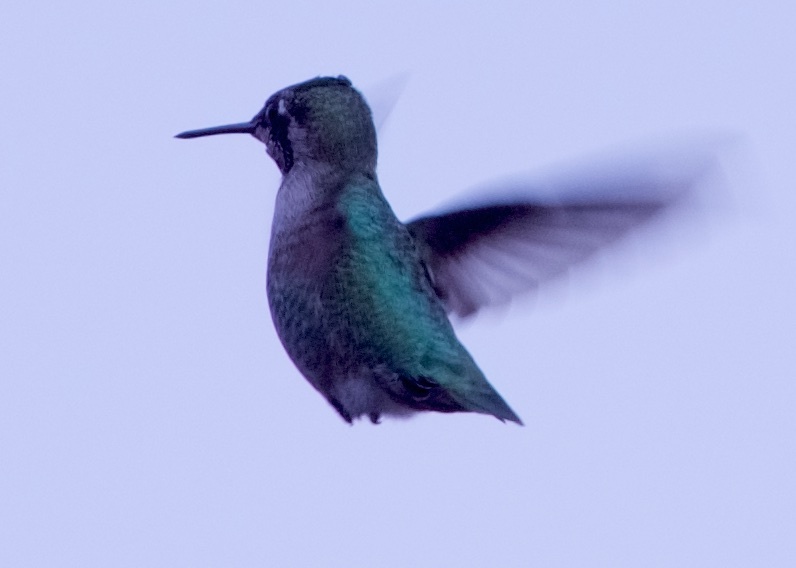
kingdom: Animalia
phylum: Chordata
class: Aves
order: Apodiformes
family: Trochilidae
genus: Calypte
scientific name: Calypte anna
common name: Anna's hummingbird
